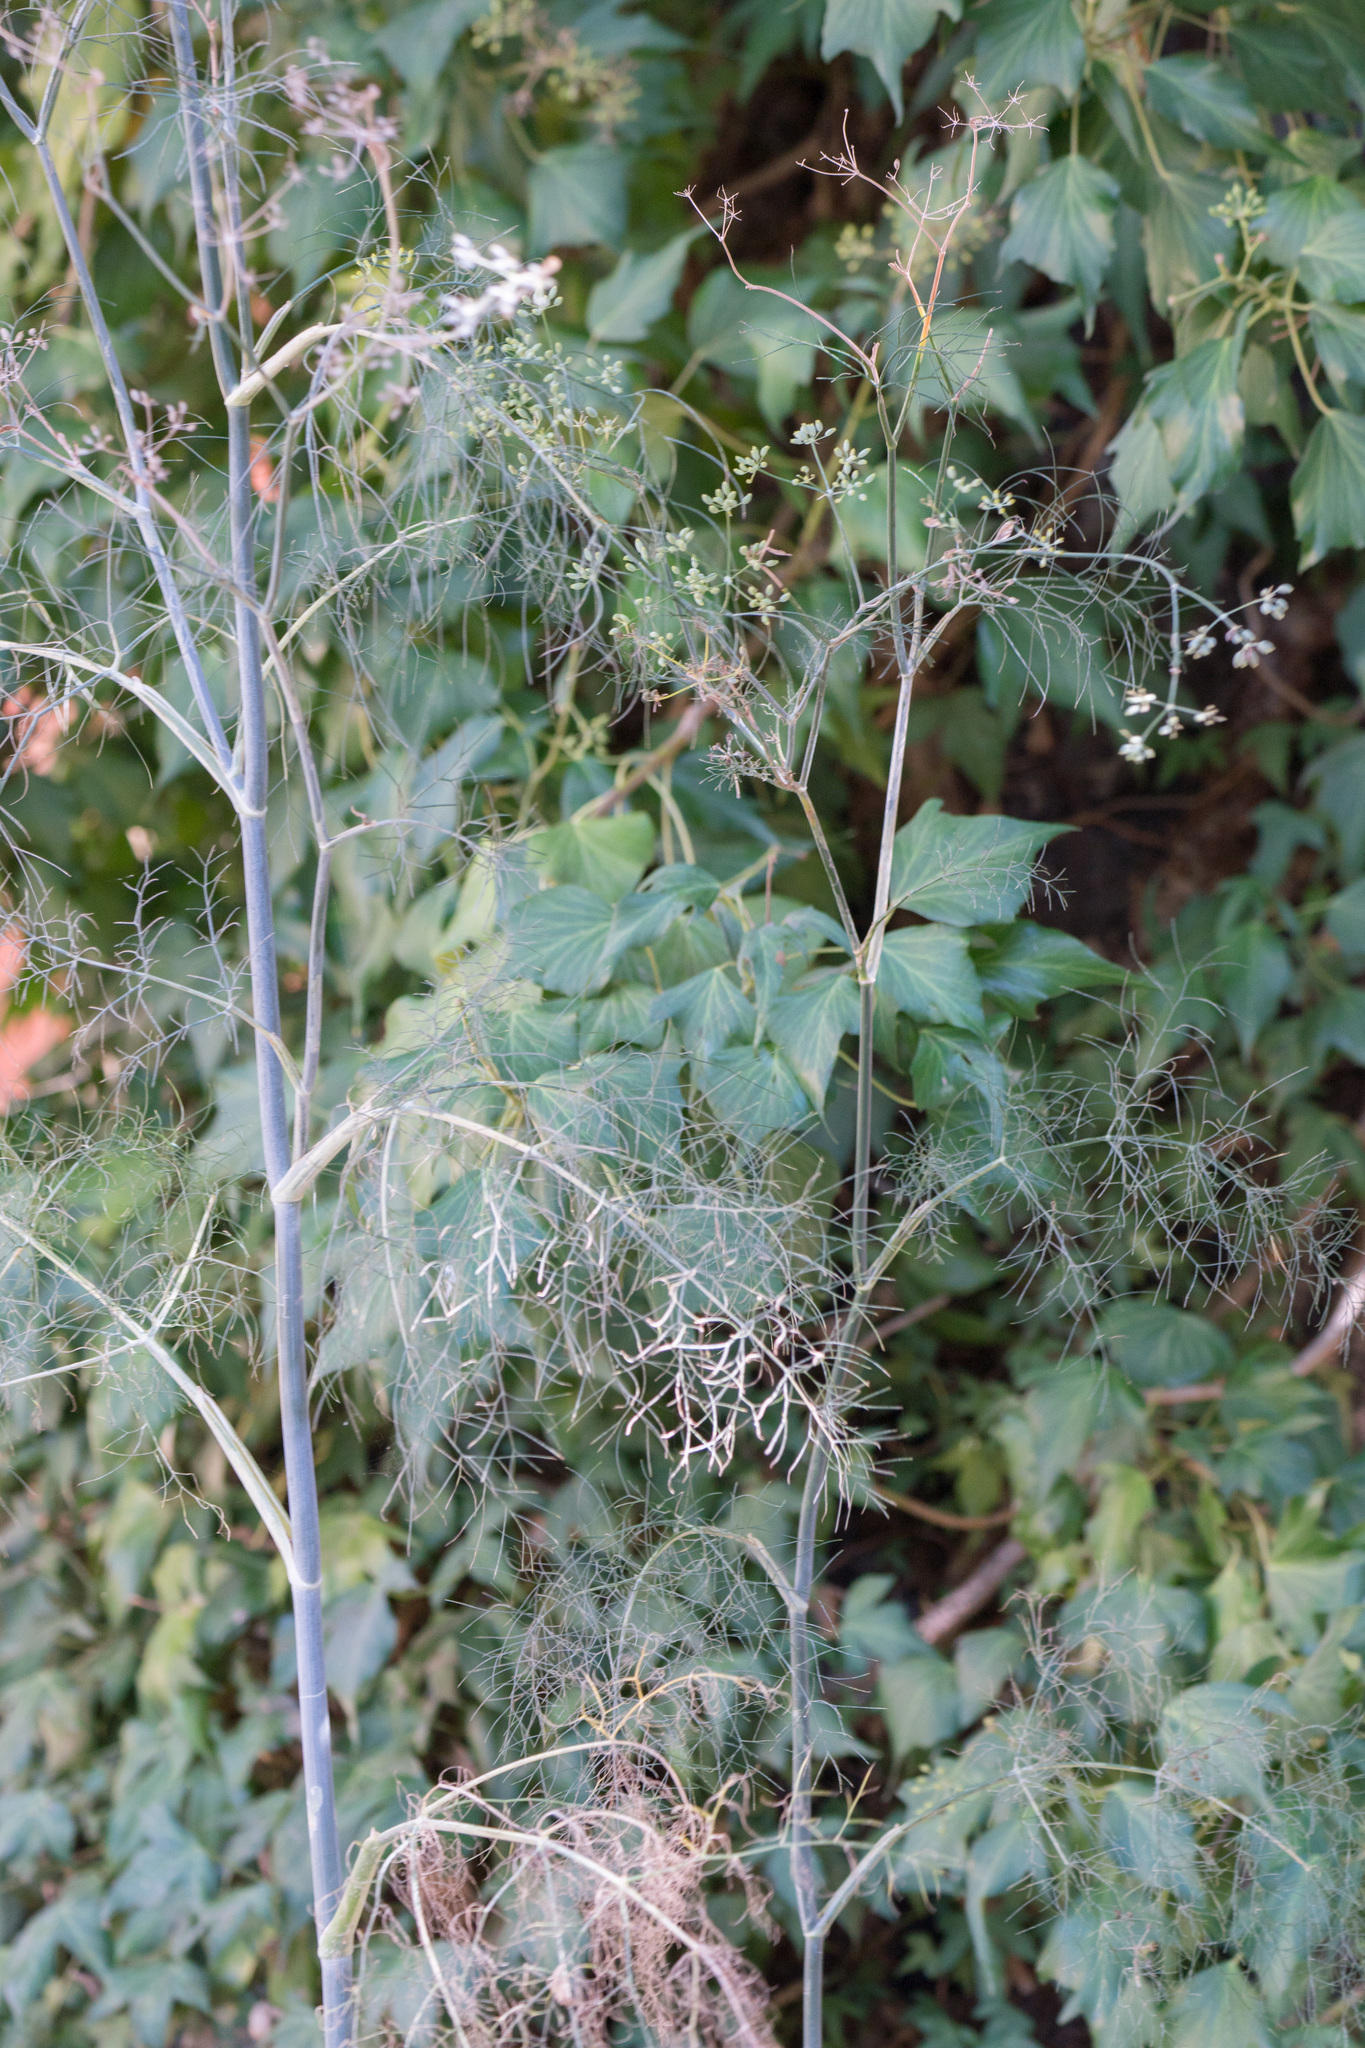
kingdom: Plantae
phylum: Tracheophyta
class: Magnoliopsida
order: Apiales
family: Apiaceae
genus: Foeniculum
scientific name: Foeniculum vulgare
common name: Fennel
